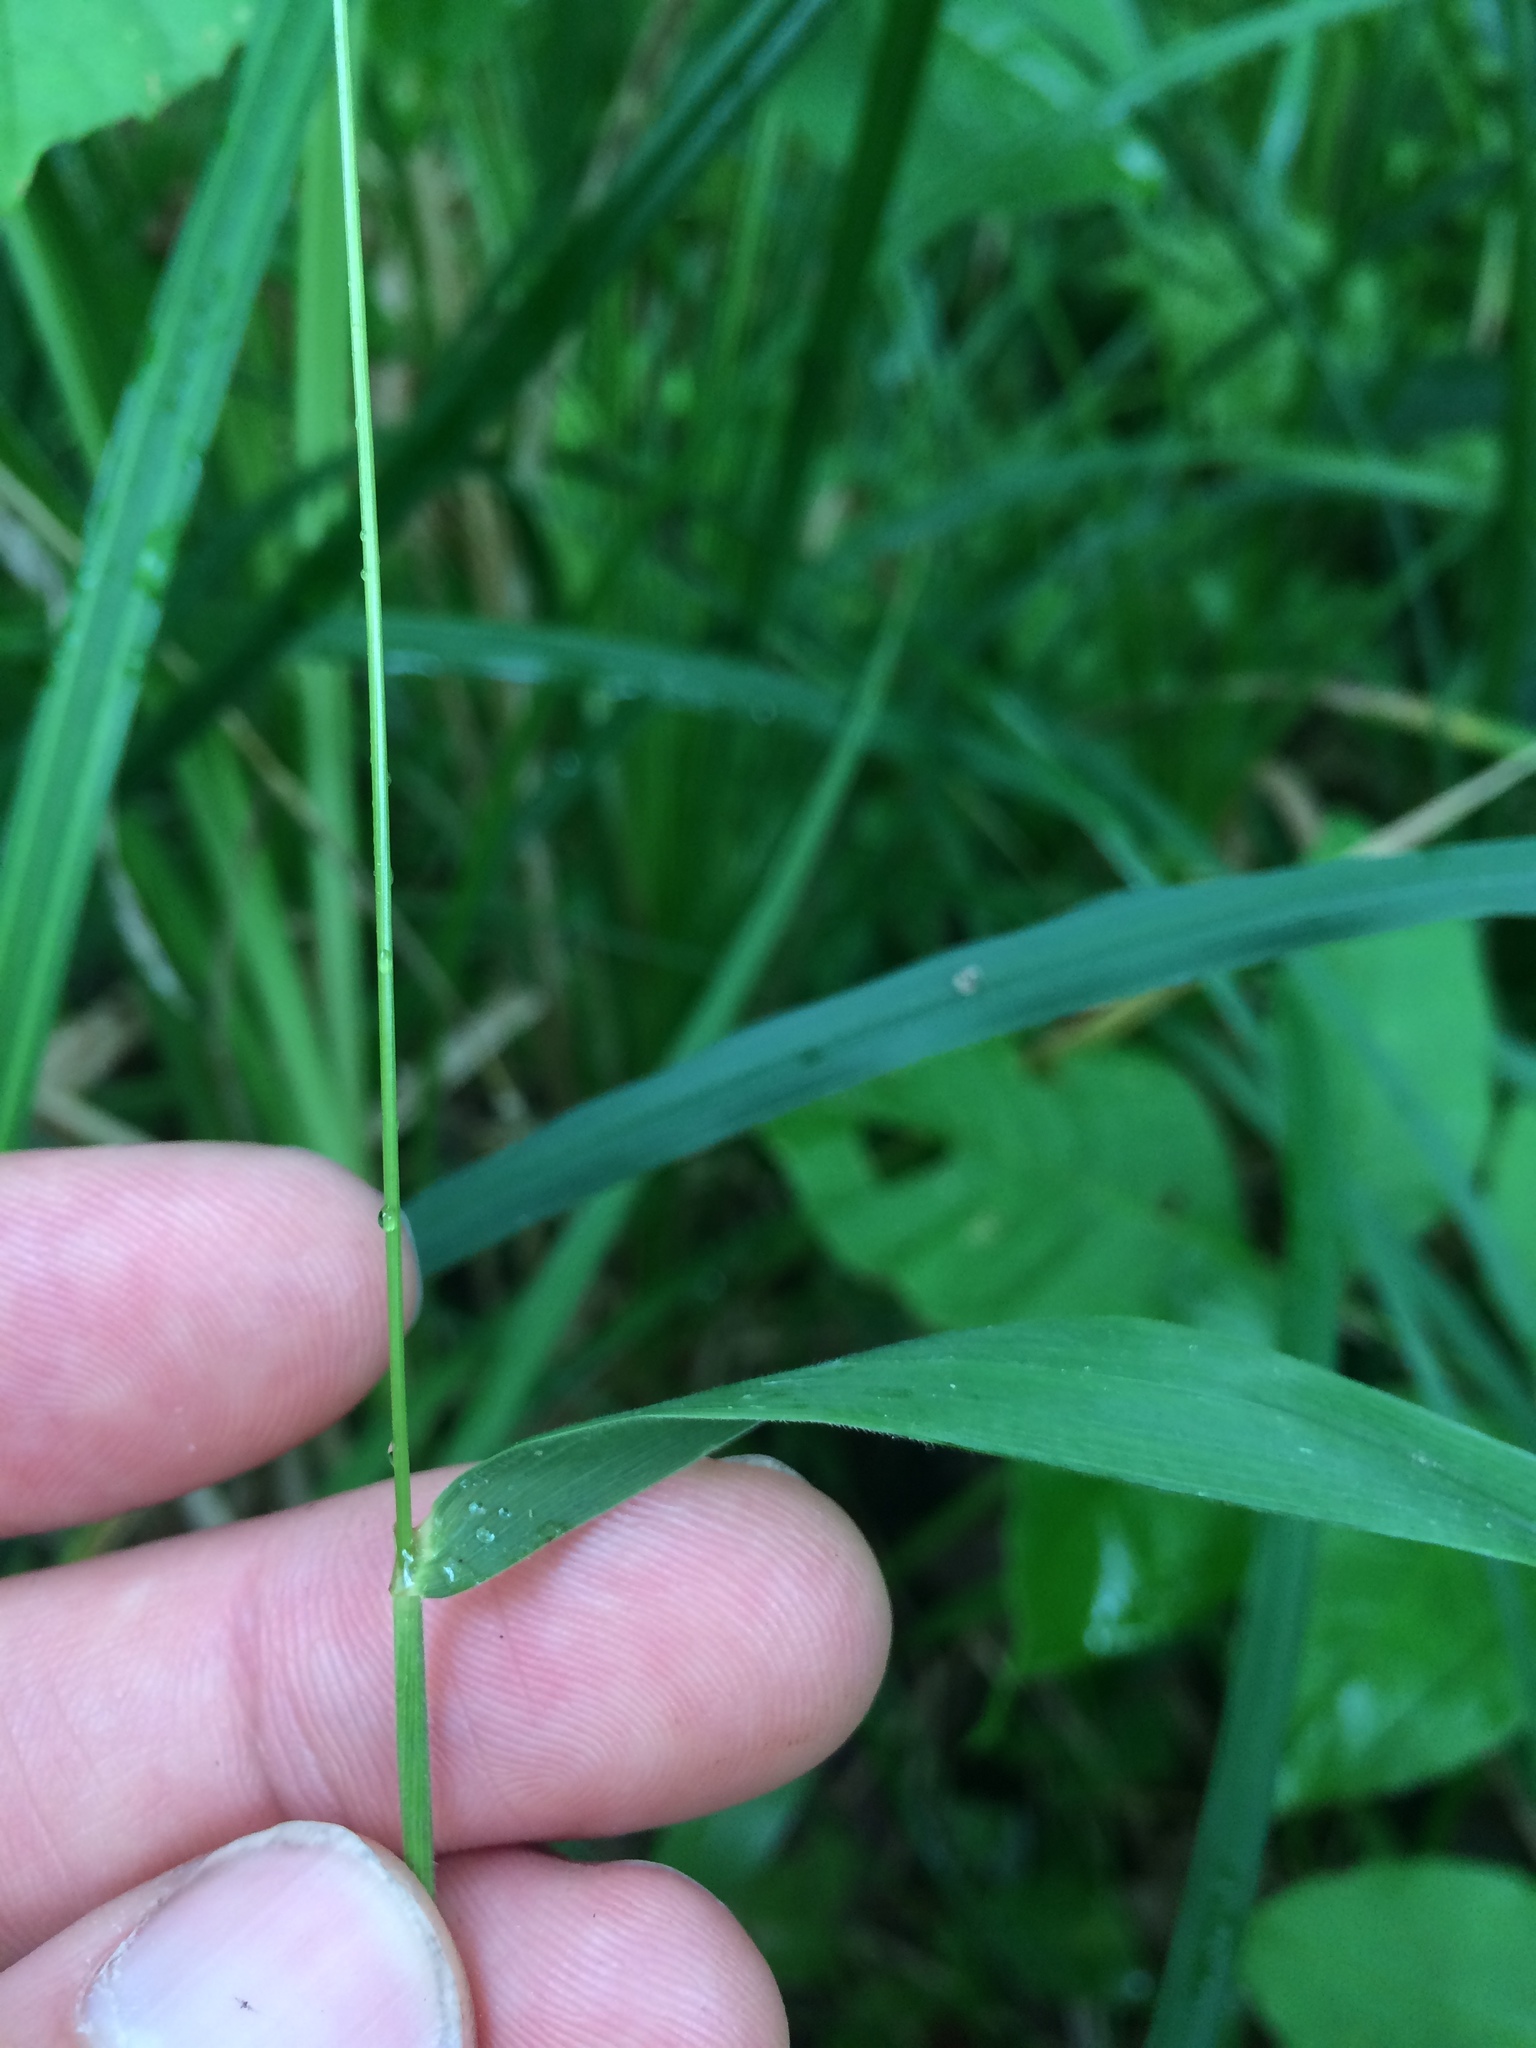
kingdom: Plantae
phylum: Tracheophyta
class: Liliopsida
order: Poales
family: Poaceae
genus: Elymus
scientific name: Elymus hystrix
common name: Bottlebrush grass
